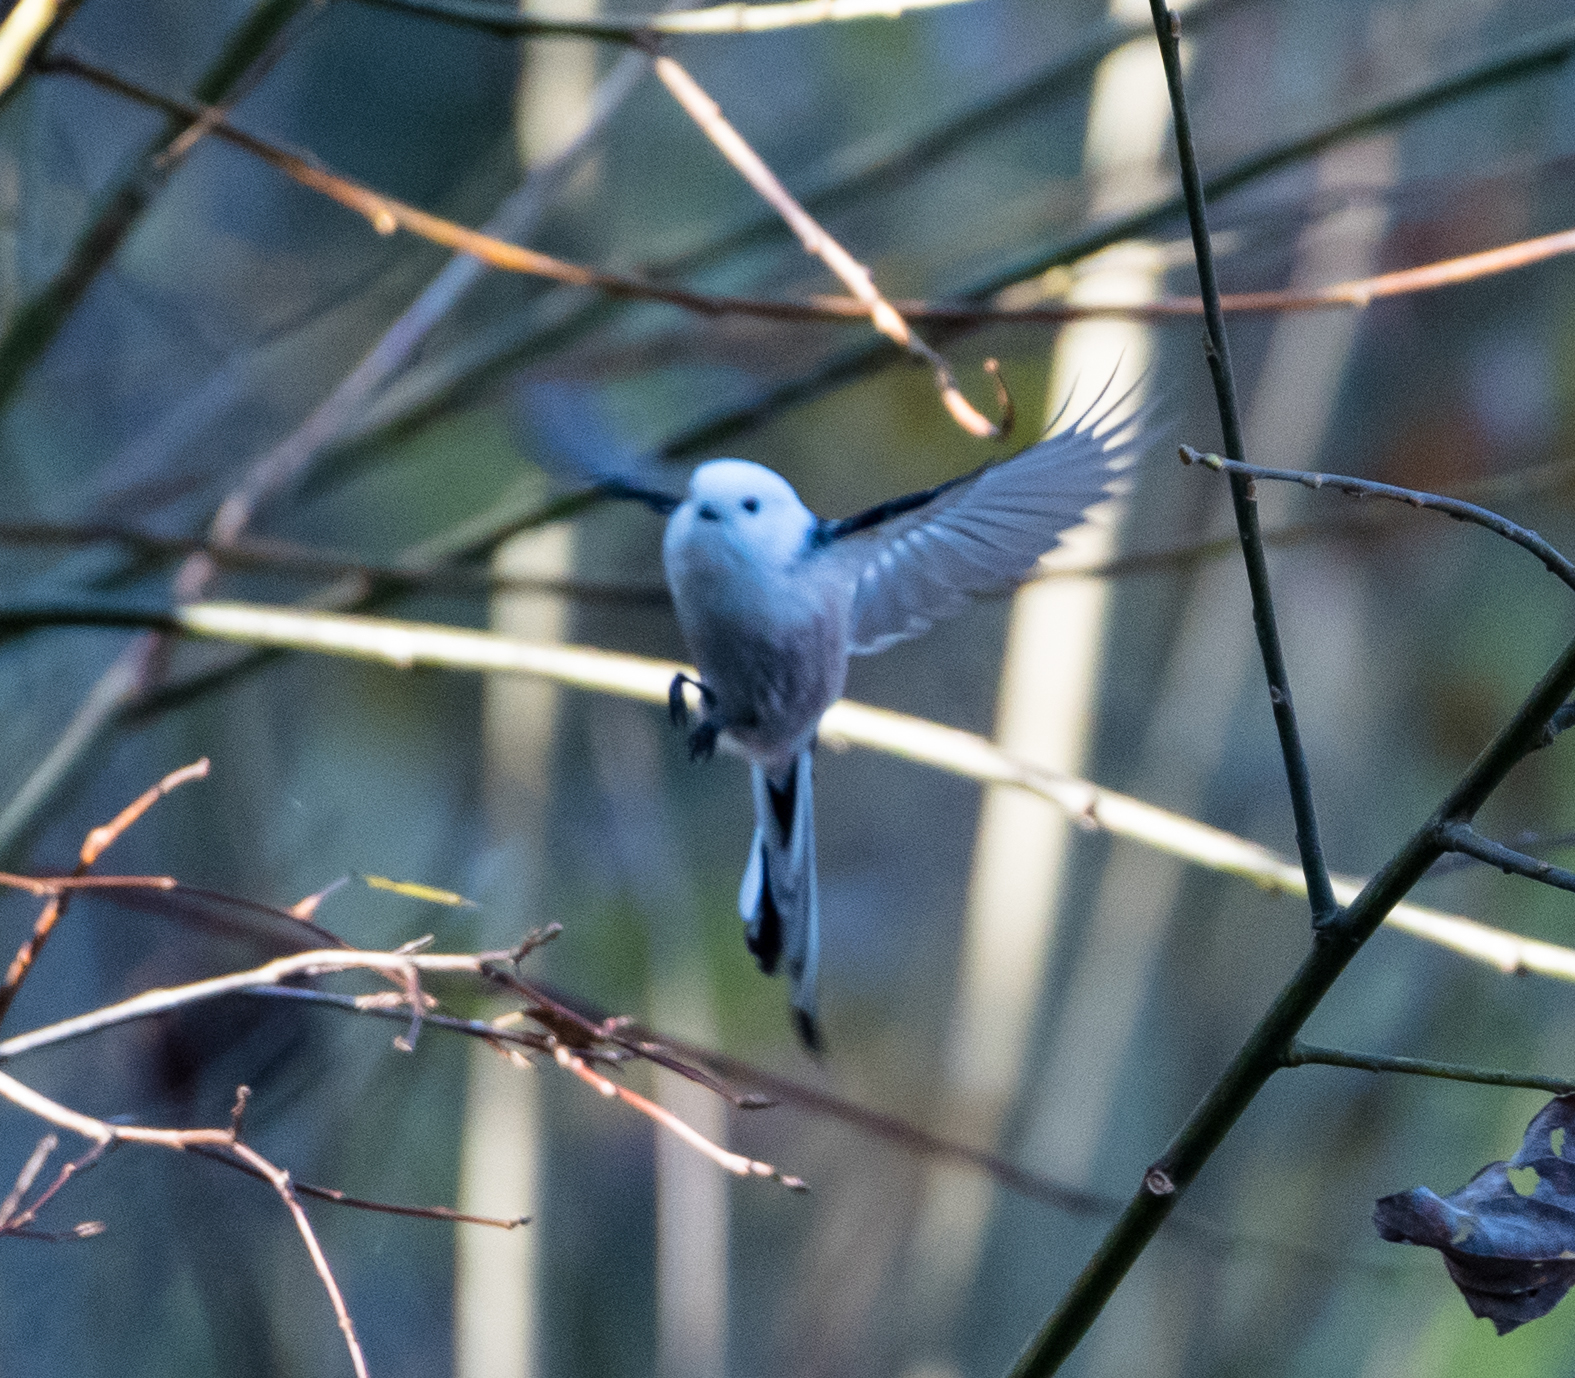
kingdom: Animalia
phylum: Chordata
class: Aves
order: Passeriformes
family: Aegithalidae
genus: Aegithalos
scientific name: Aegithalos caudatus
